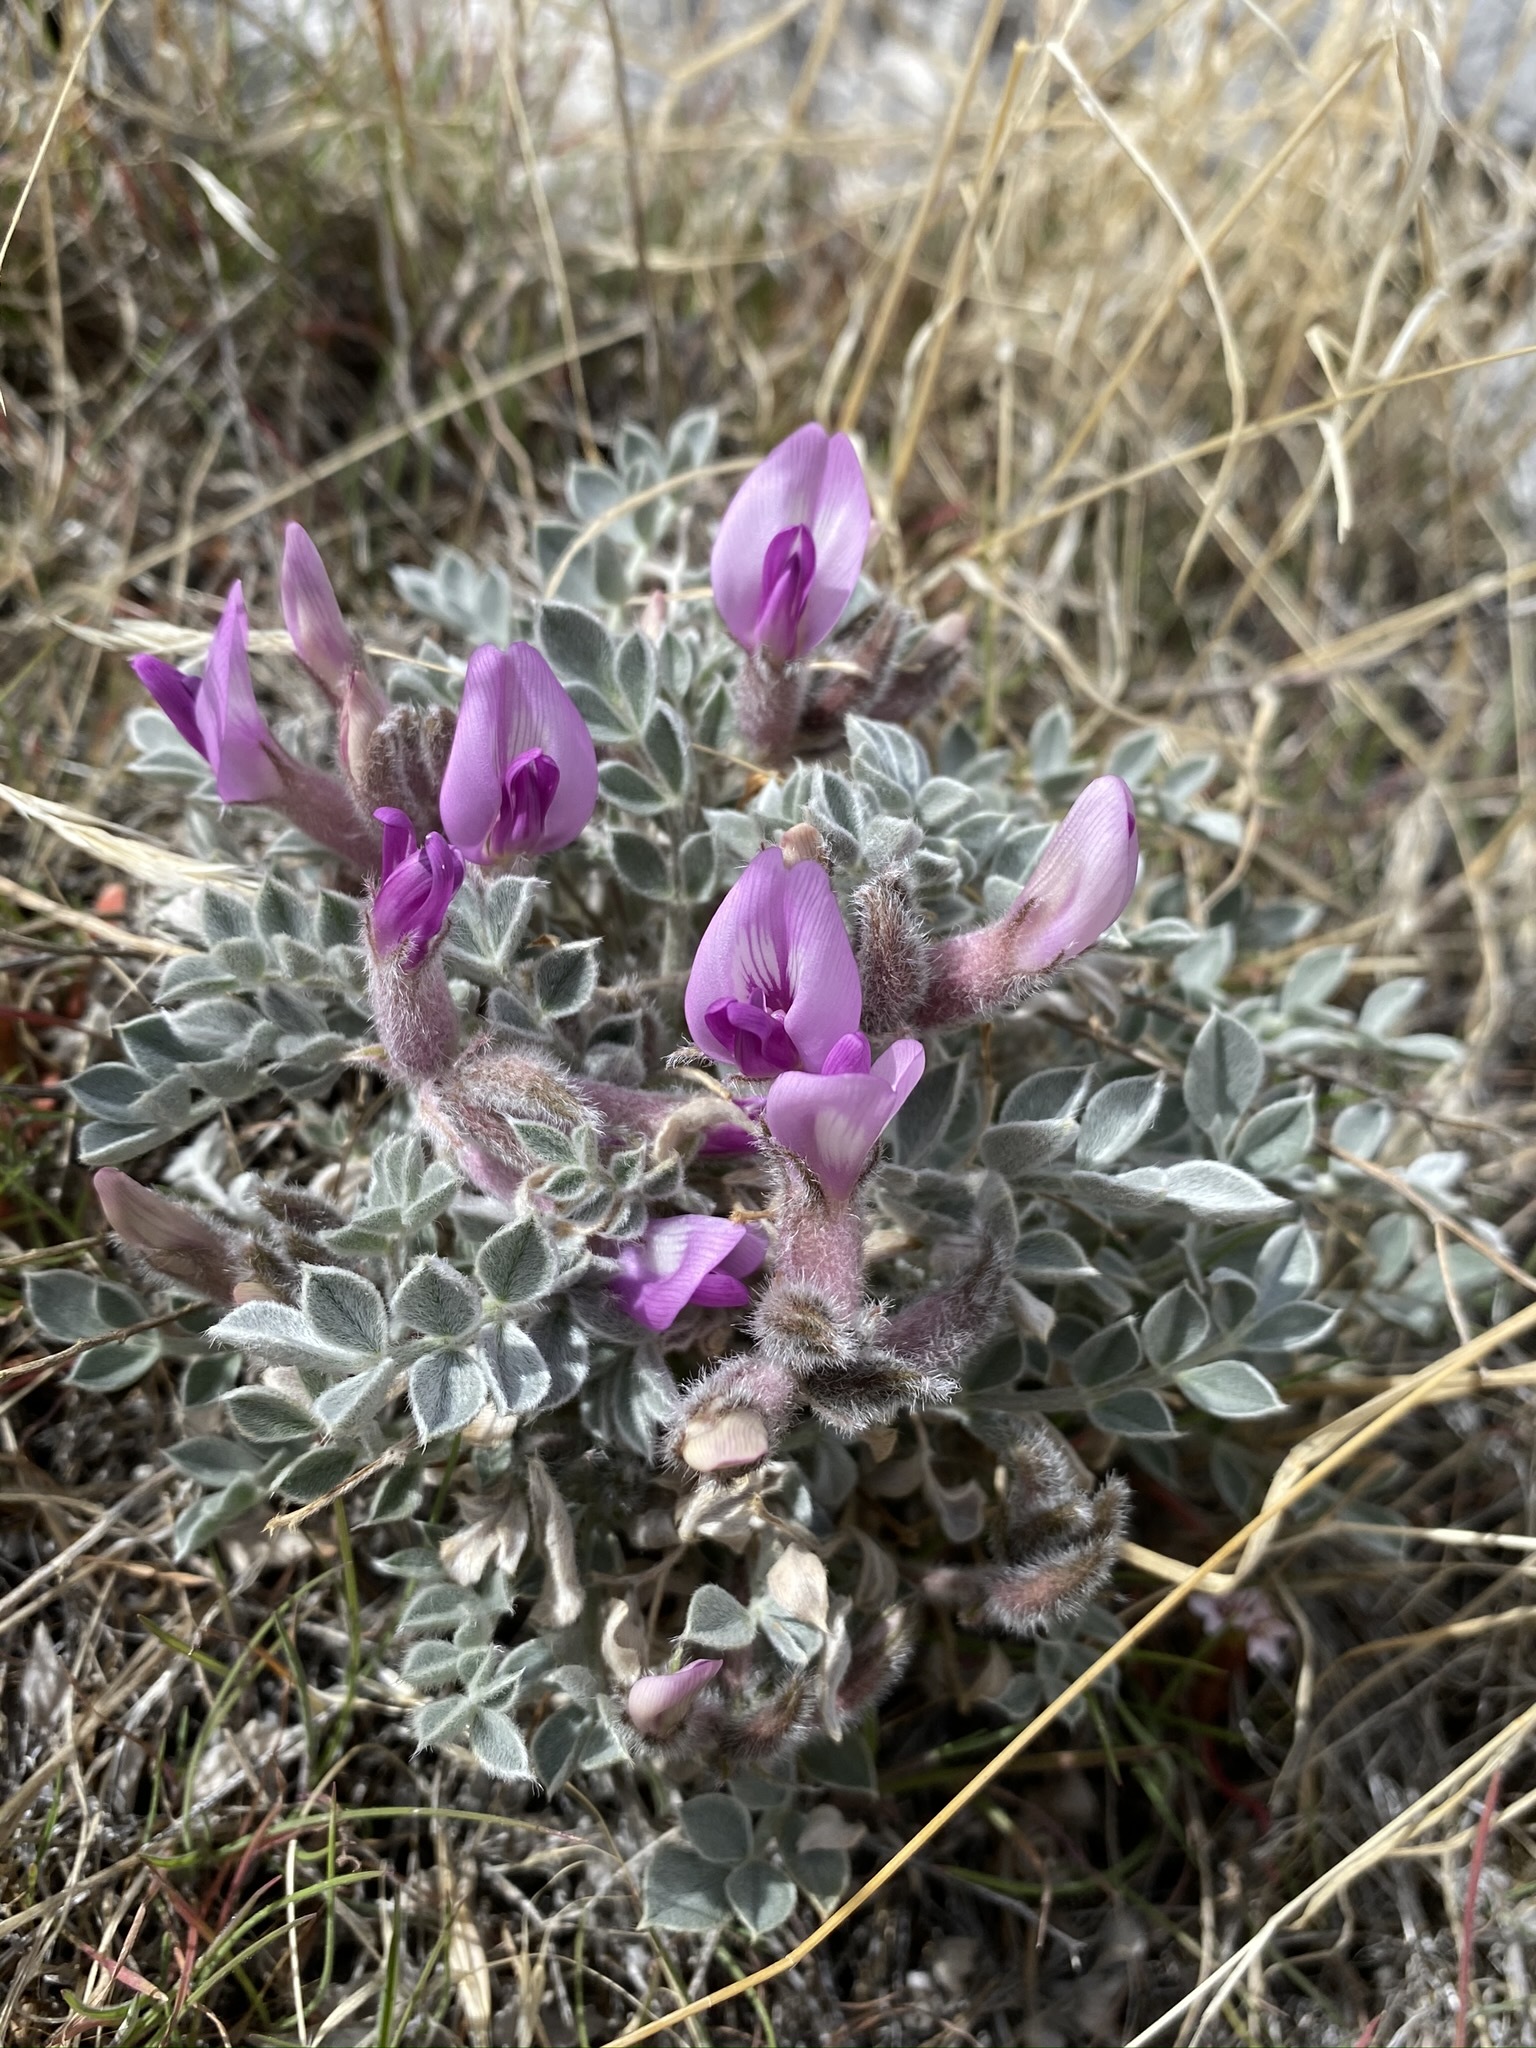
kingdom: Plantae
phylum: Tracheophyta
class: Magnoliopsida
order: Fabales
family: Fabaceae
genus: Astragalus
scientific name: Astragalus newberryi
